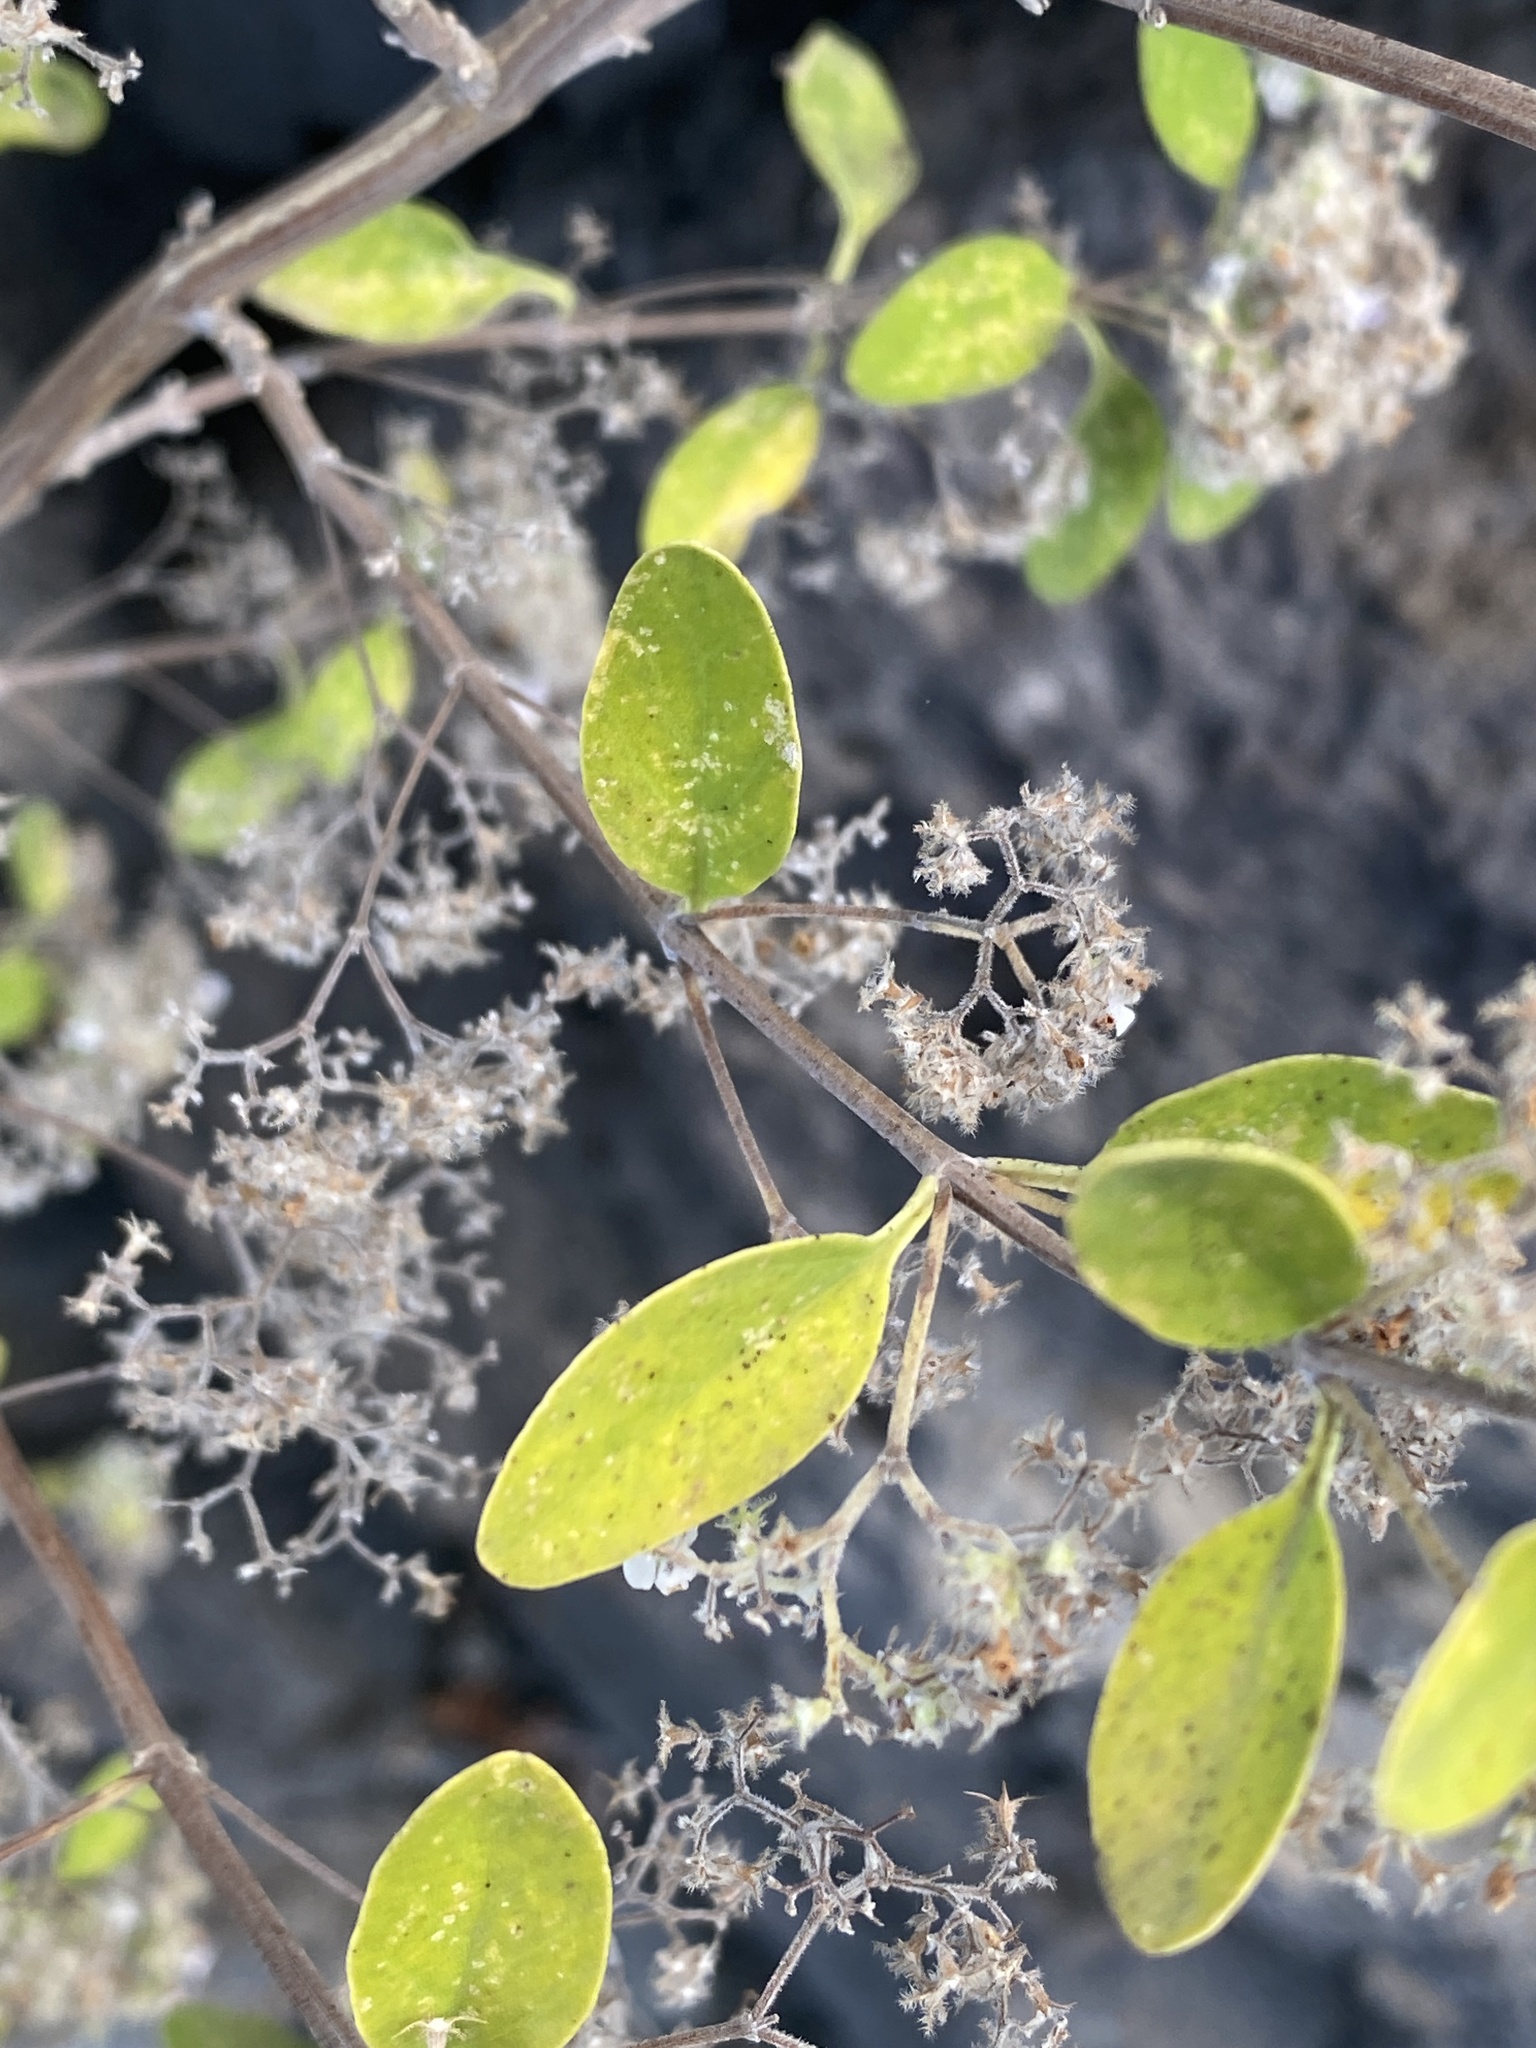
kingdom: Plantae
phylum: Tracheophyta
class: Magnoliopsida
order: Lamiales
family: Lamiaceae
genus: Bystropogon
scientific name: Bystropogon origanifolius
